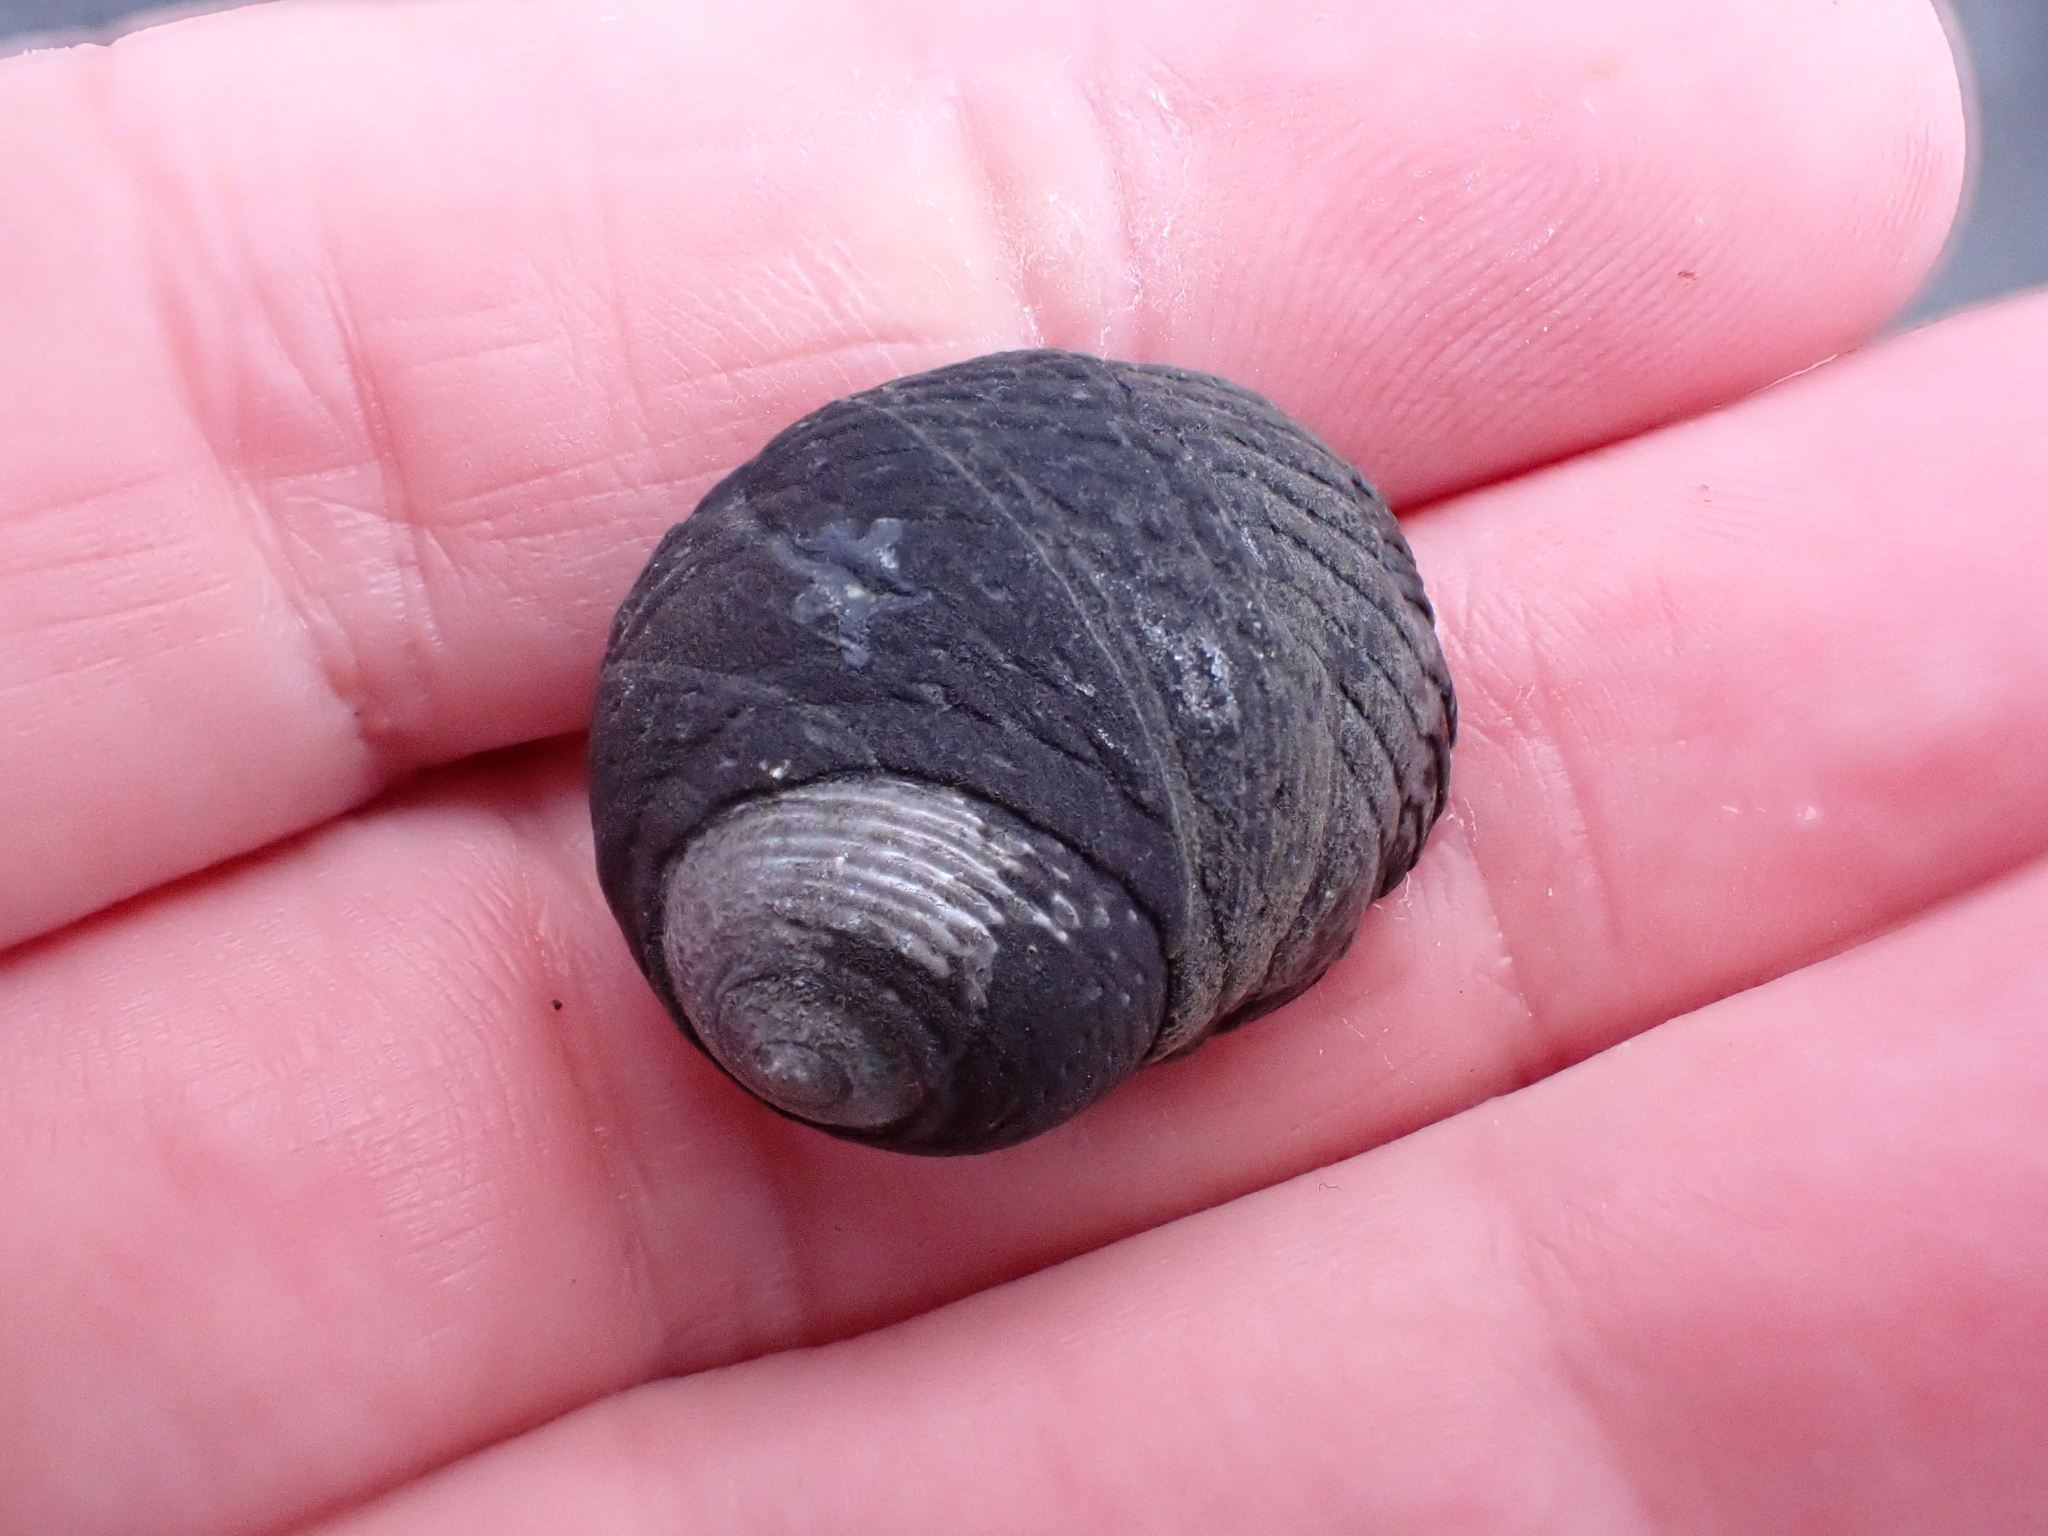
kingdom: Animalia
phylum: Mollusca
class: Gastropoda
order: Trochida
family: Trochidae
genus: Diloma
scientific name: Diloma zelandicum
